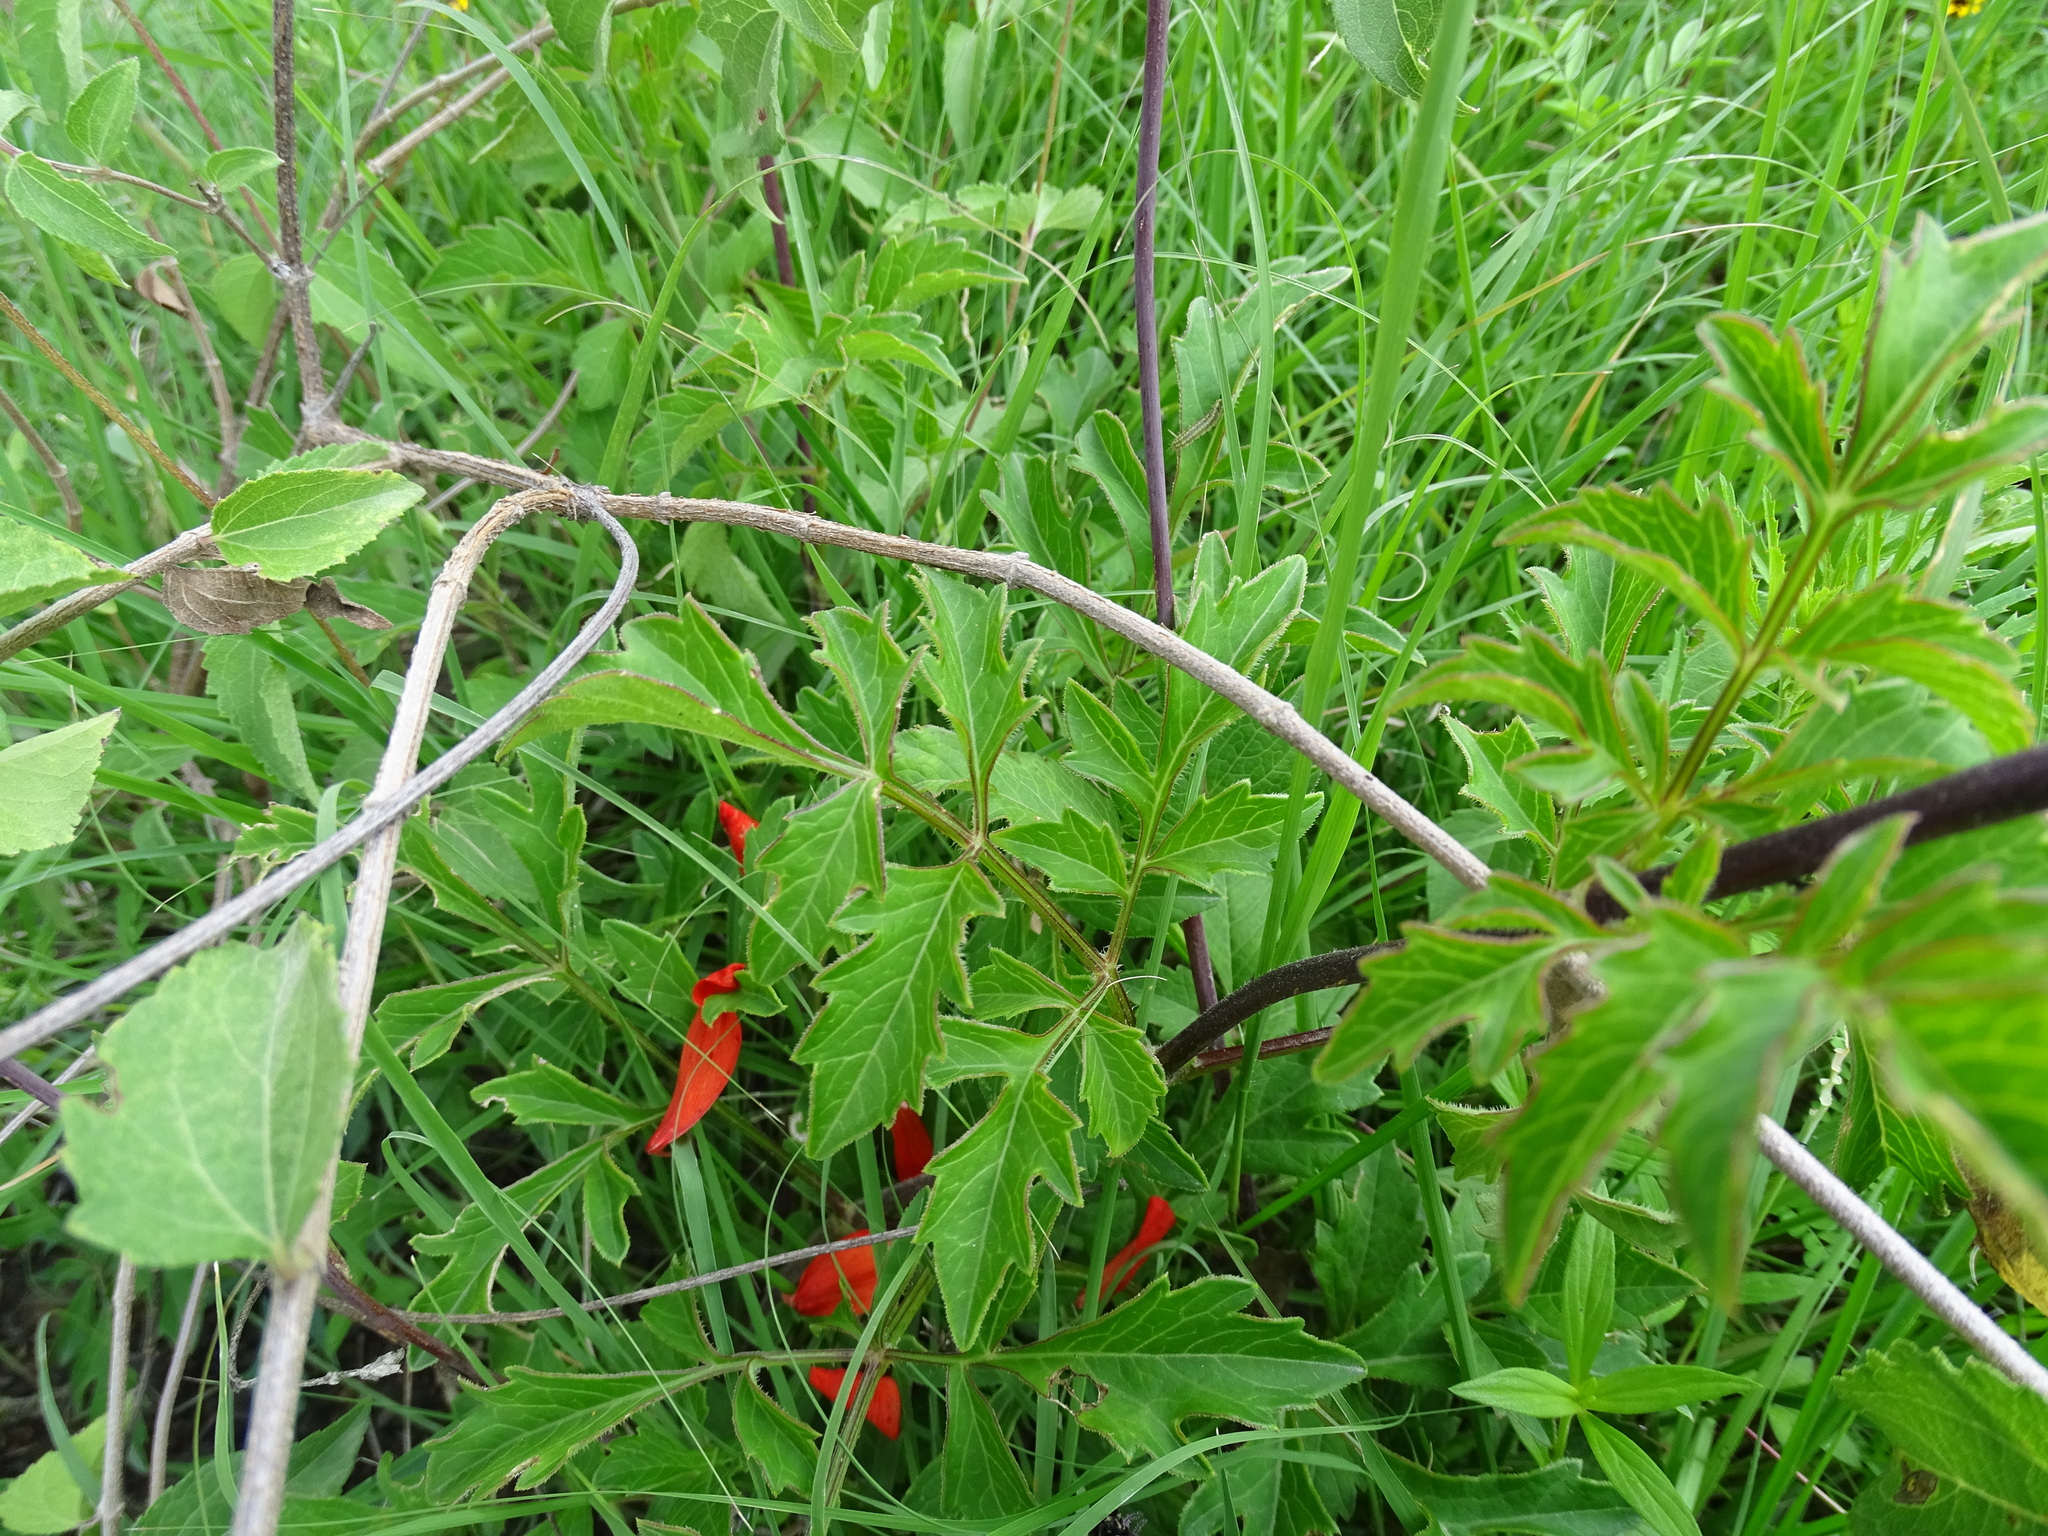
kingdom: Plantae
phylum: Tracheophyta
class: Magnoliopsida
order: Asterales
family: Asteraceae
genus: Dahlia
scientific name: Dahlia coccinea
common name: Red dahlia
